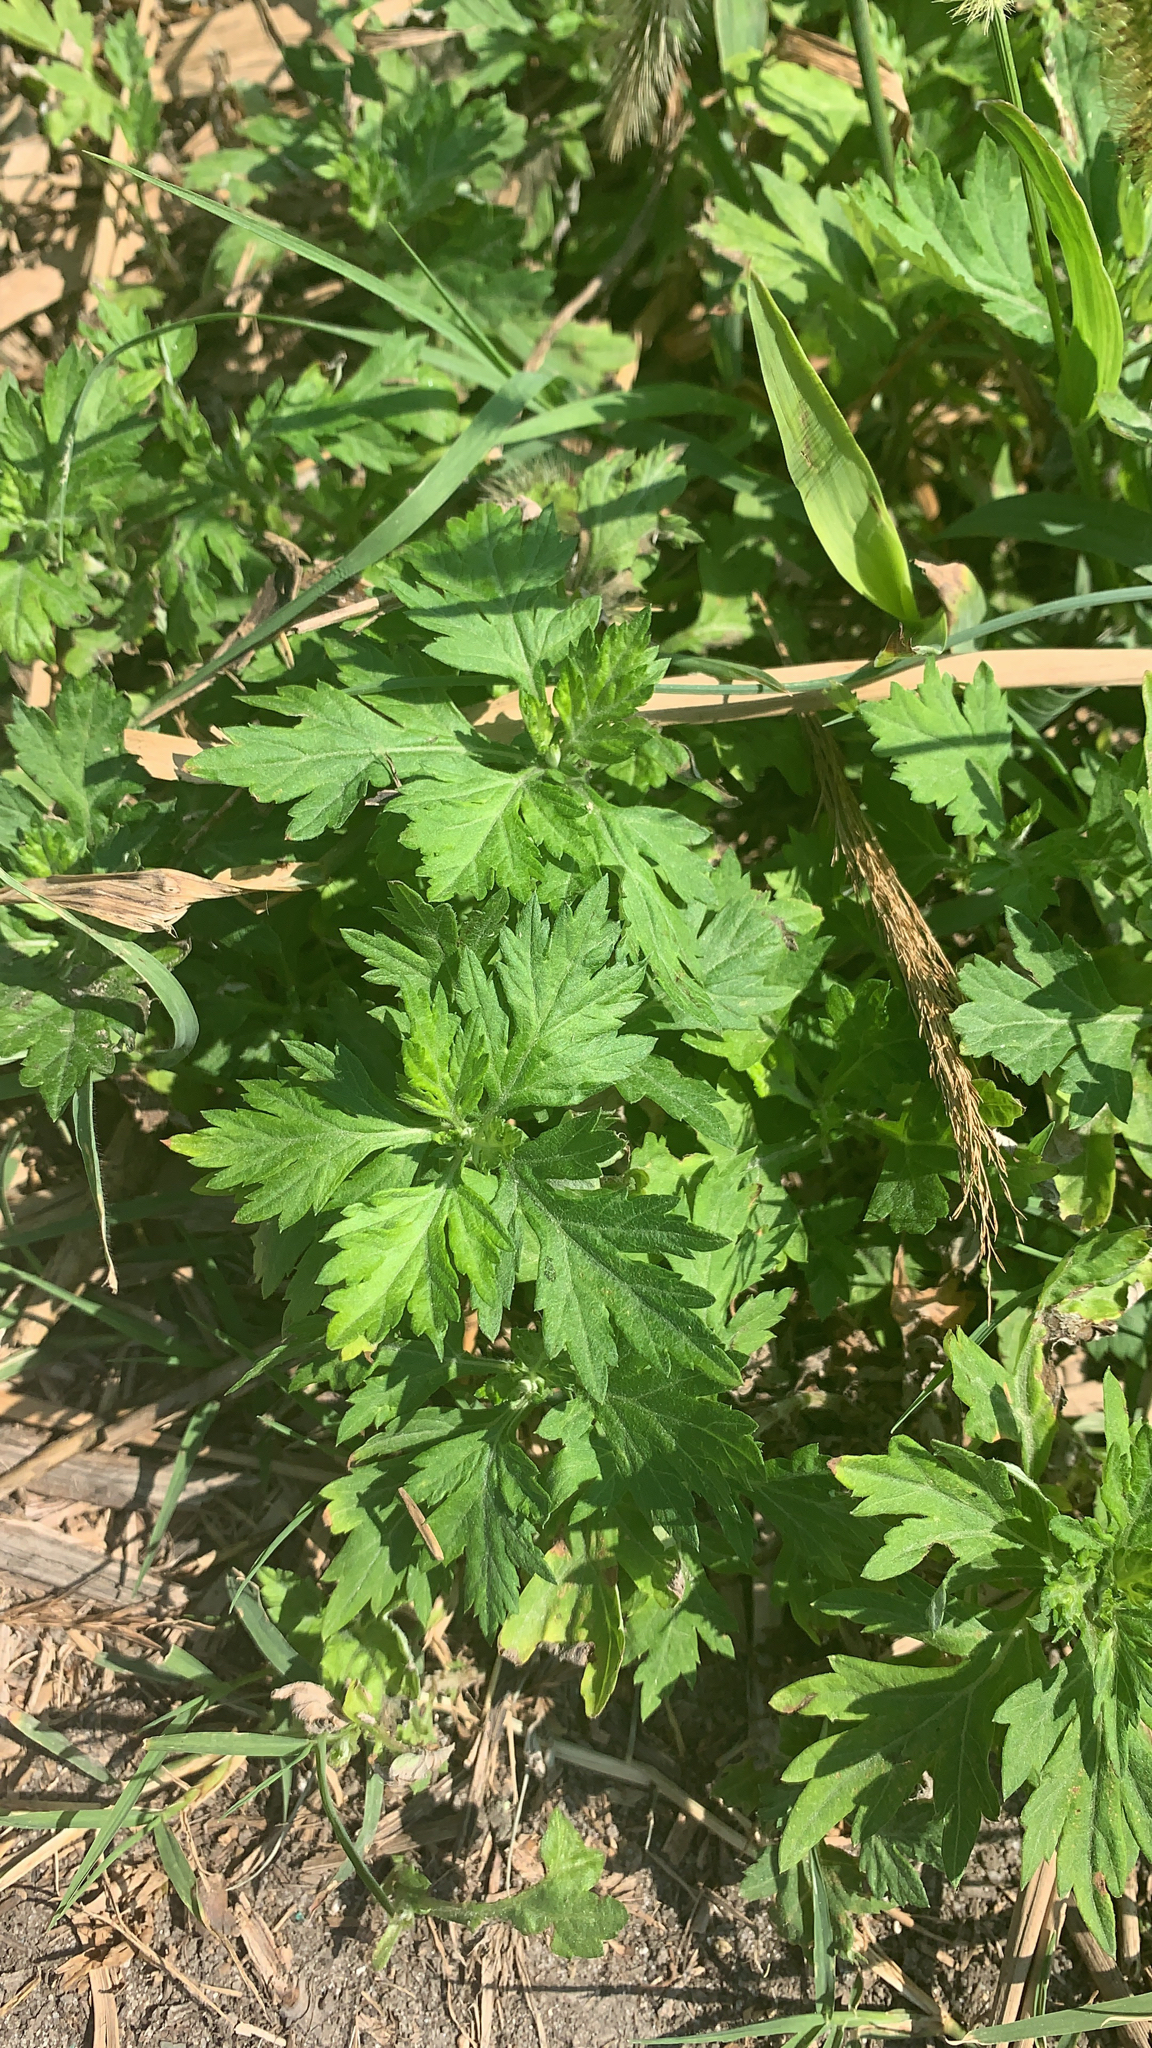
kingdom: Plantae
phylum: Tracheophyta
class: Magnoliopsida
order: Asterales
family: Asteraceae
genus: Artemisia
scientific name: Artemisia vulgaris
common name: Mugwort
